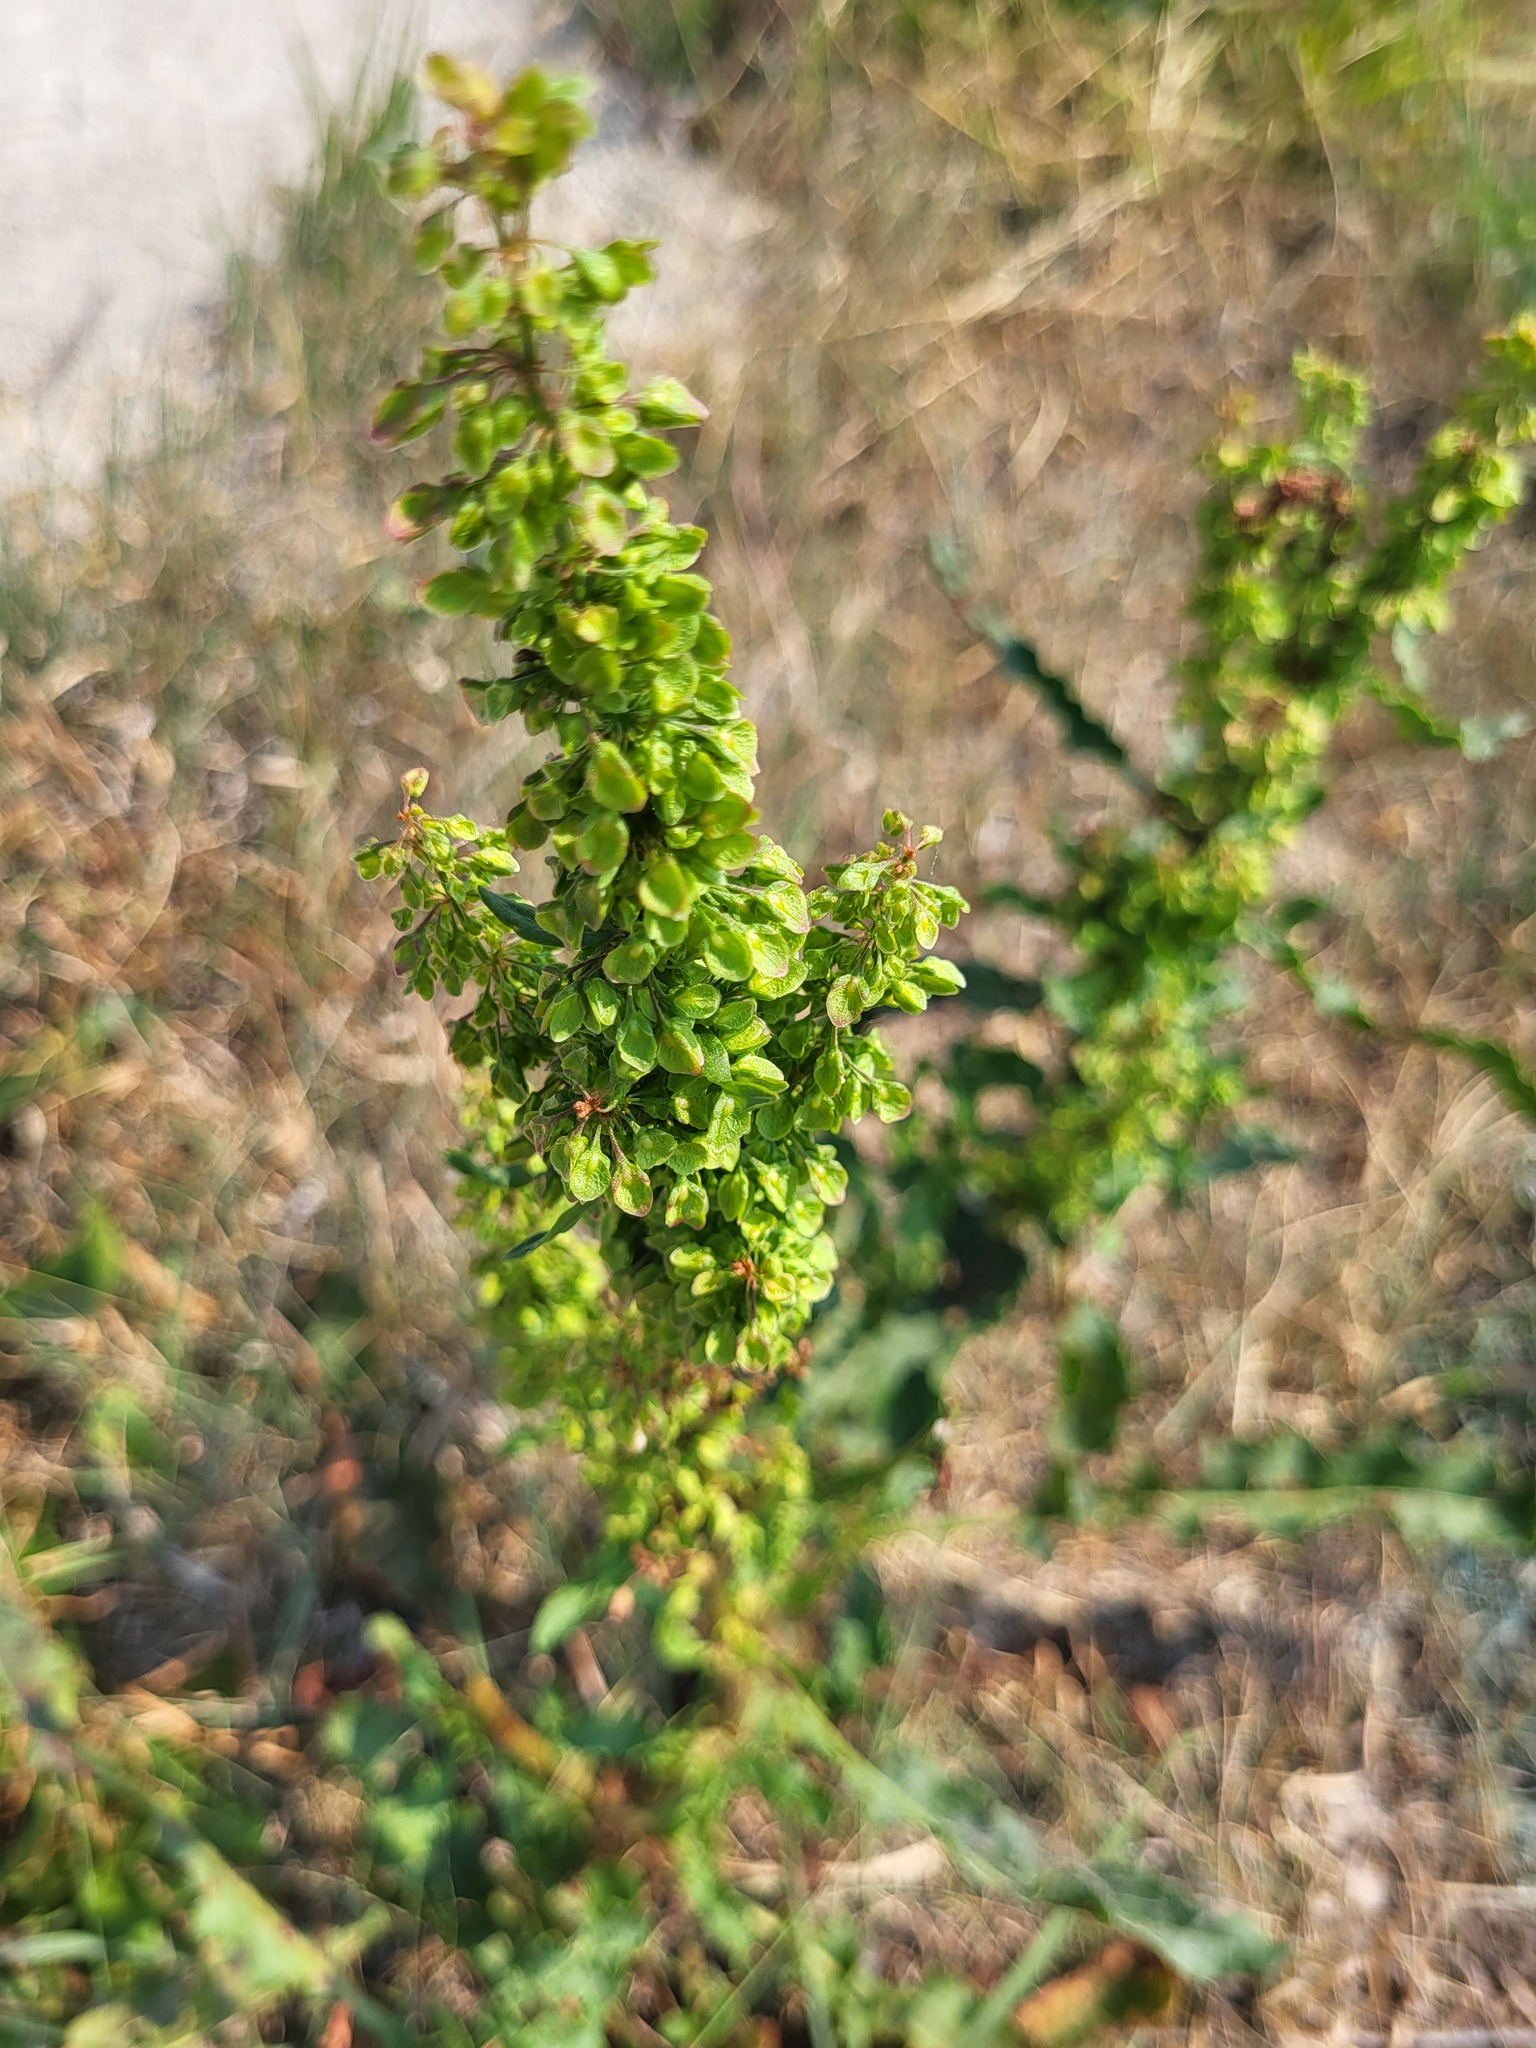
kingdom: Plantae
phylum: Tracheophyta
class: Magnoliopsida
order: Caryophyllales
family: Polygonaceae
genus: Rumex
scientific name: Rumex crispus
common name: Curled dock
